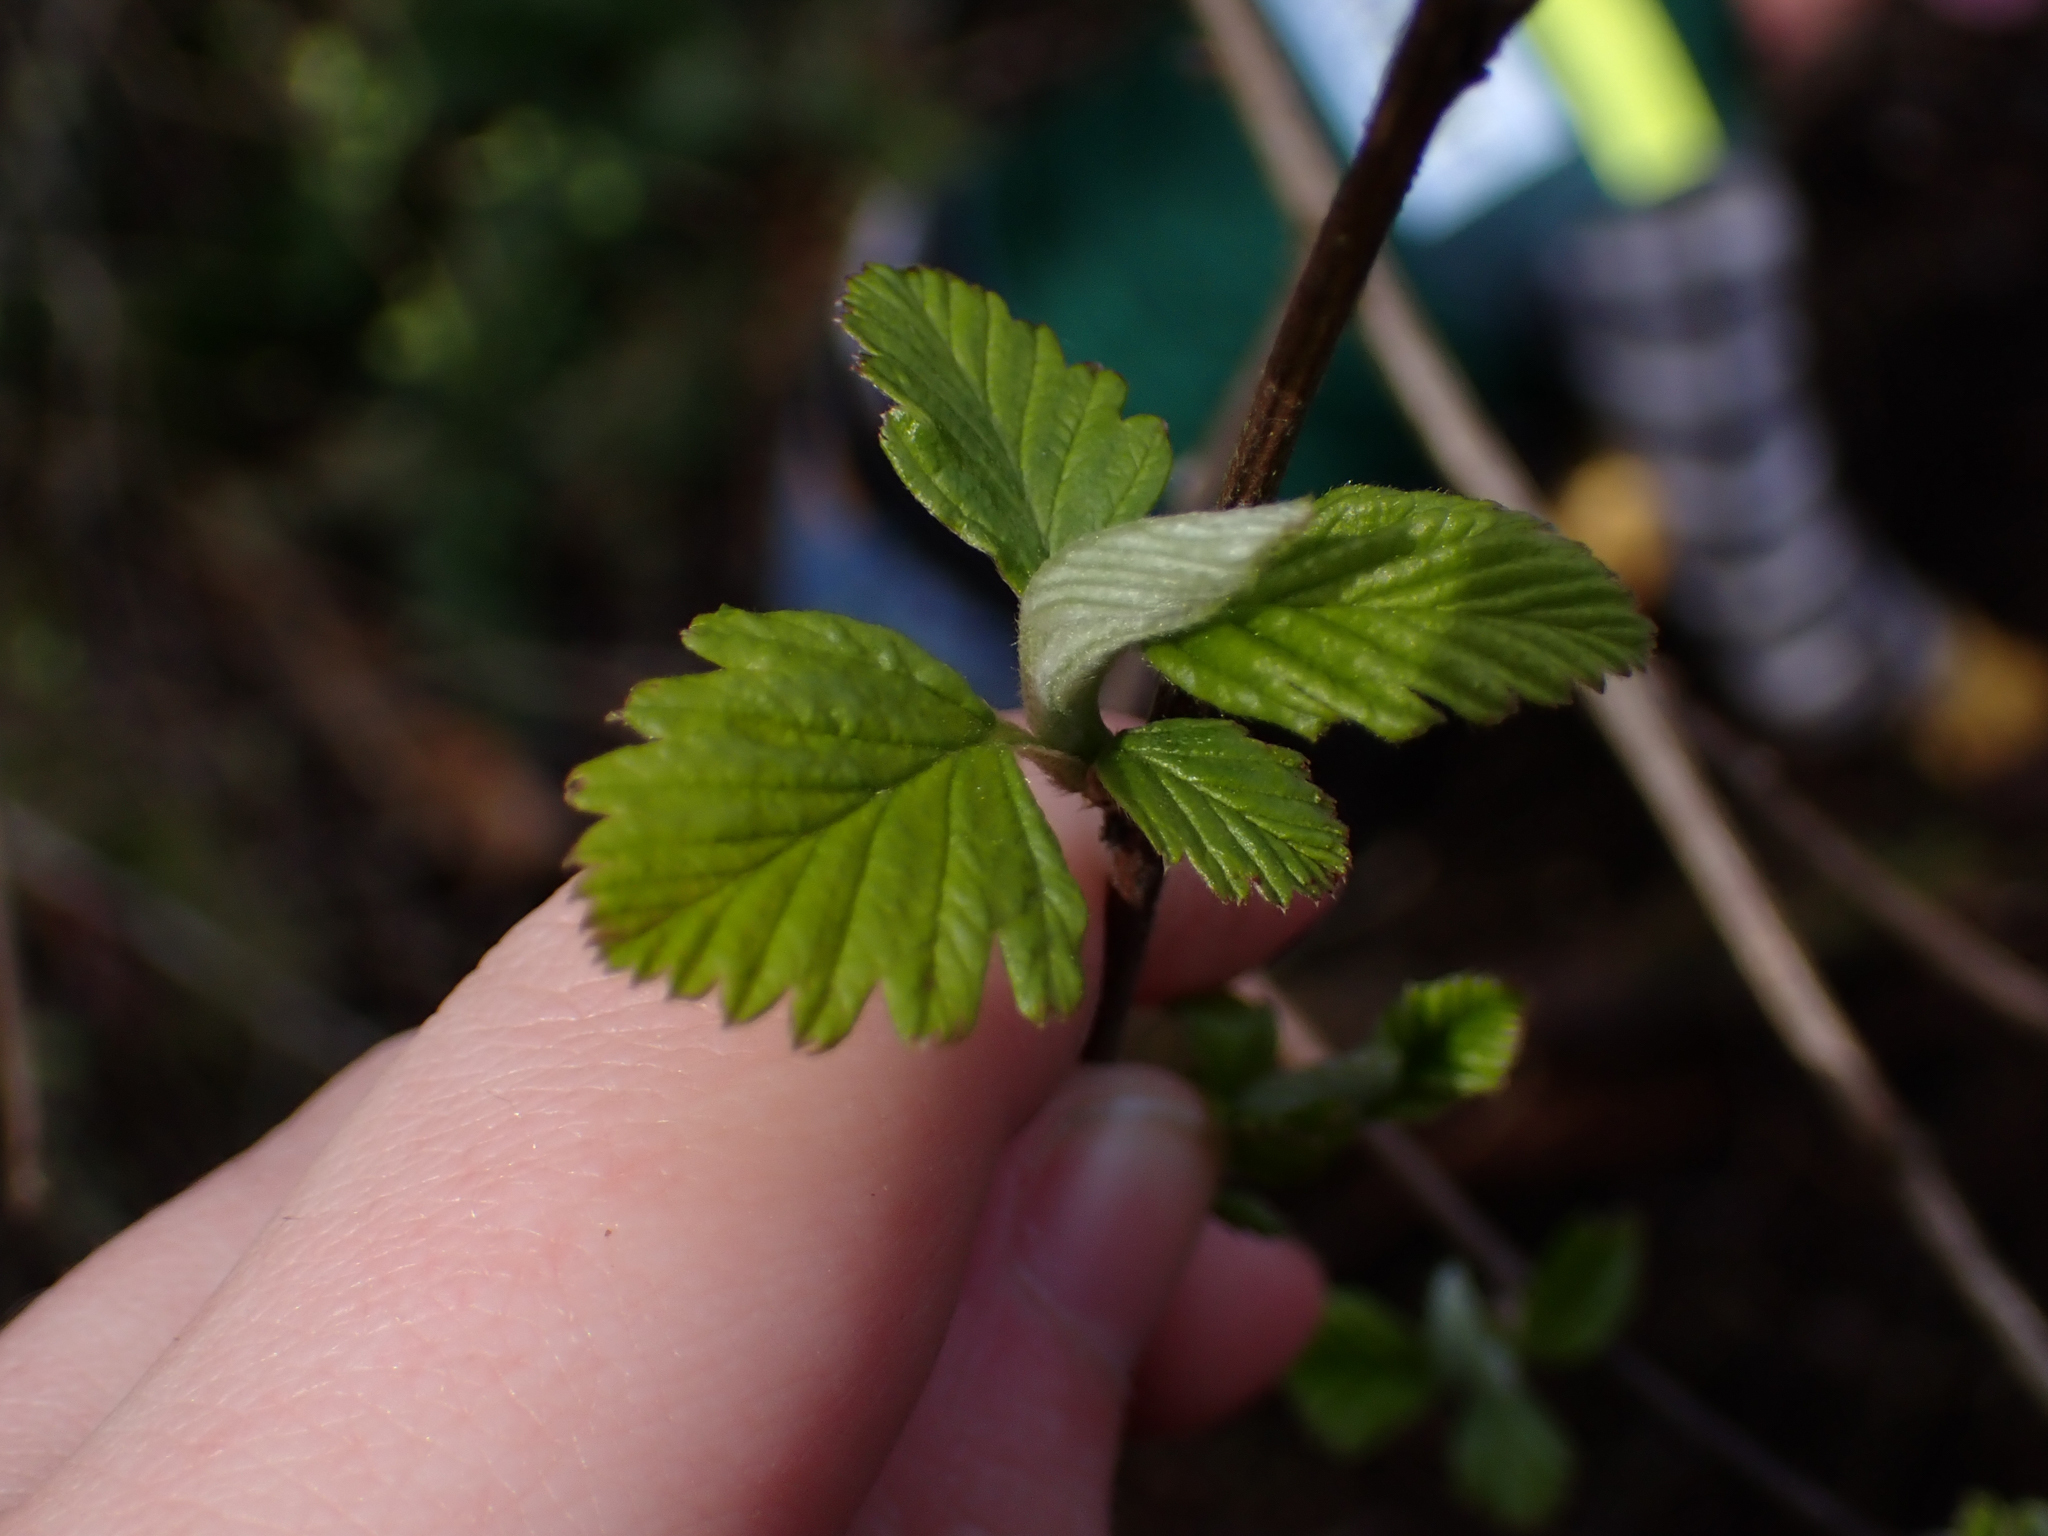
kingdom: Plantae
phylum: Tracheophyta
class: Magnoliopsida
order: Rosales
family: Rosaceae
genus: Holodiscus
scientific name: Holodiscus discolor
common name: Oceanspray
